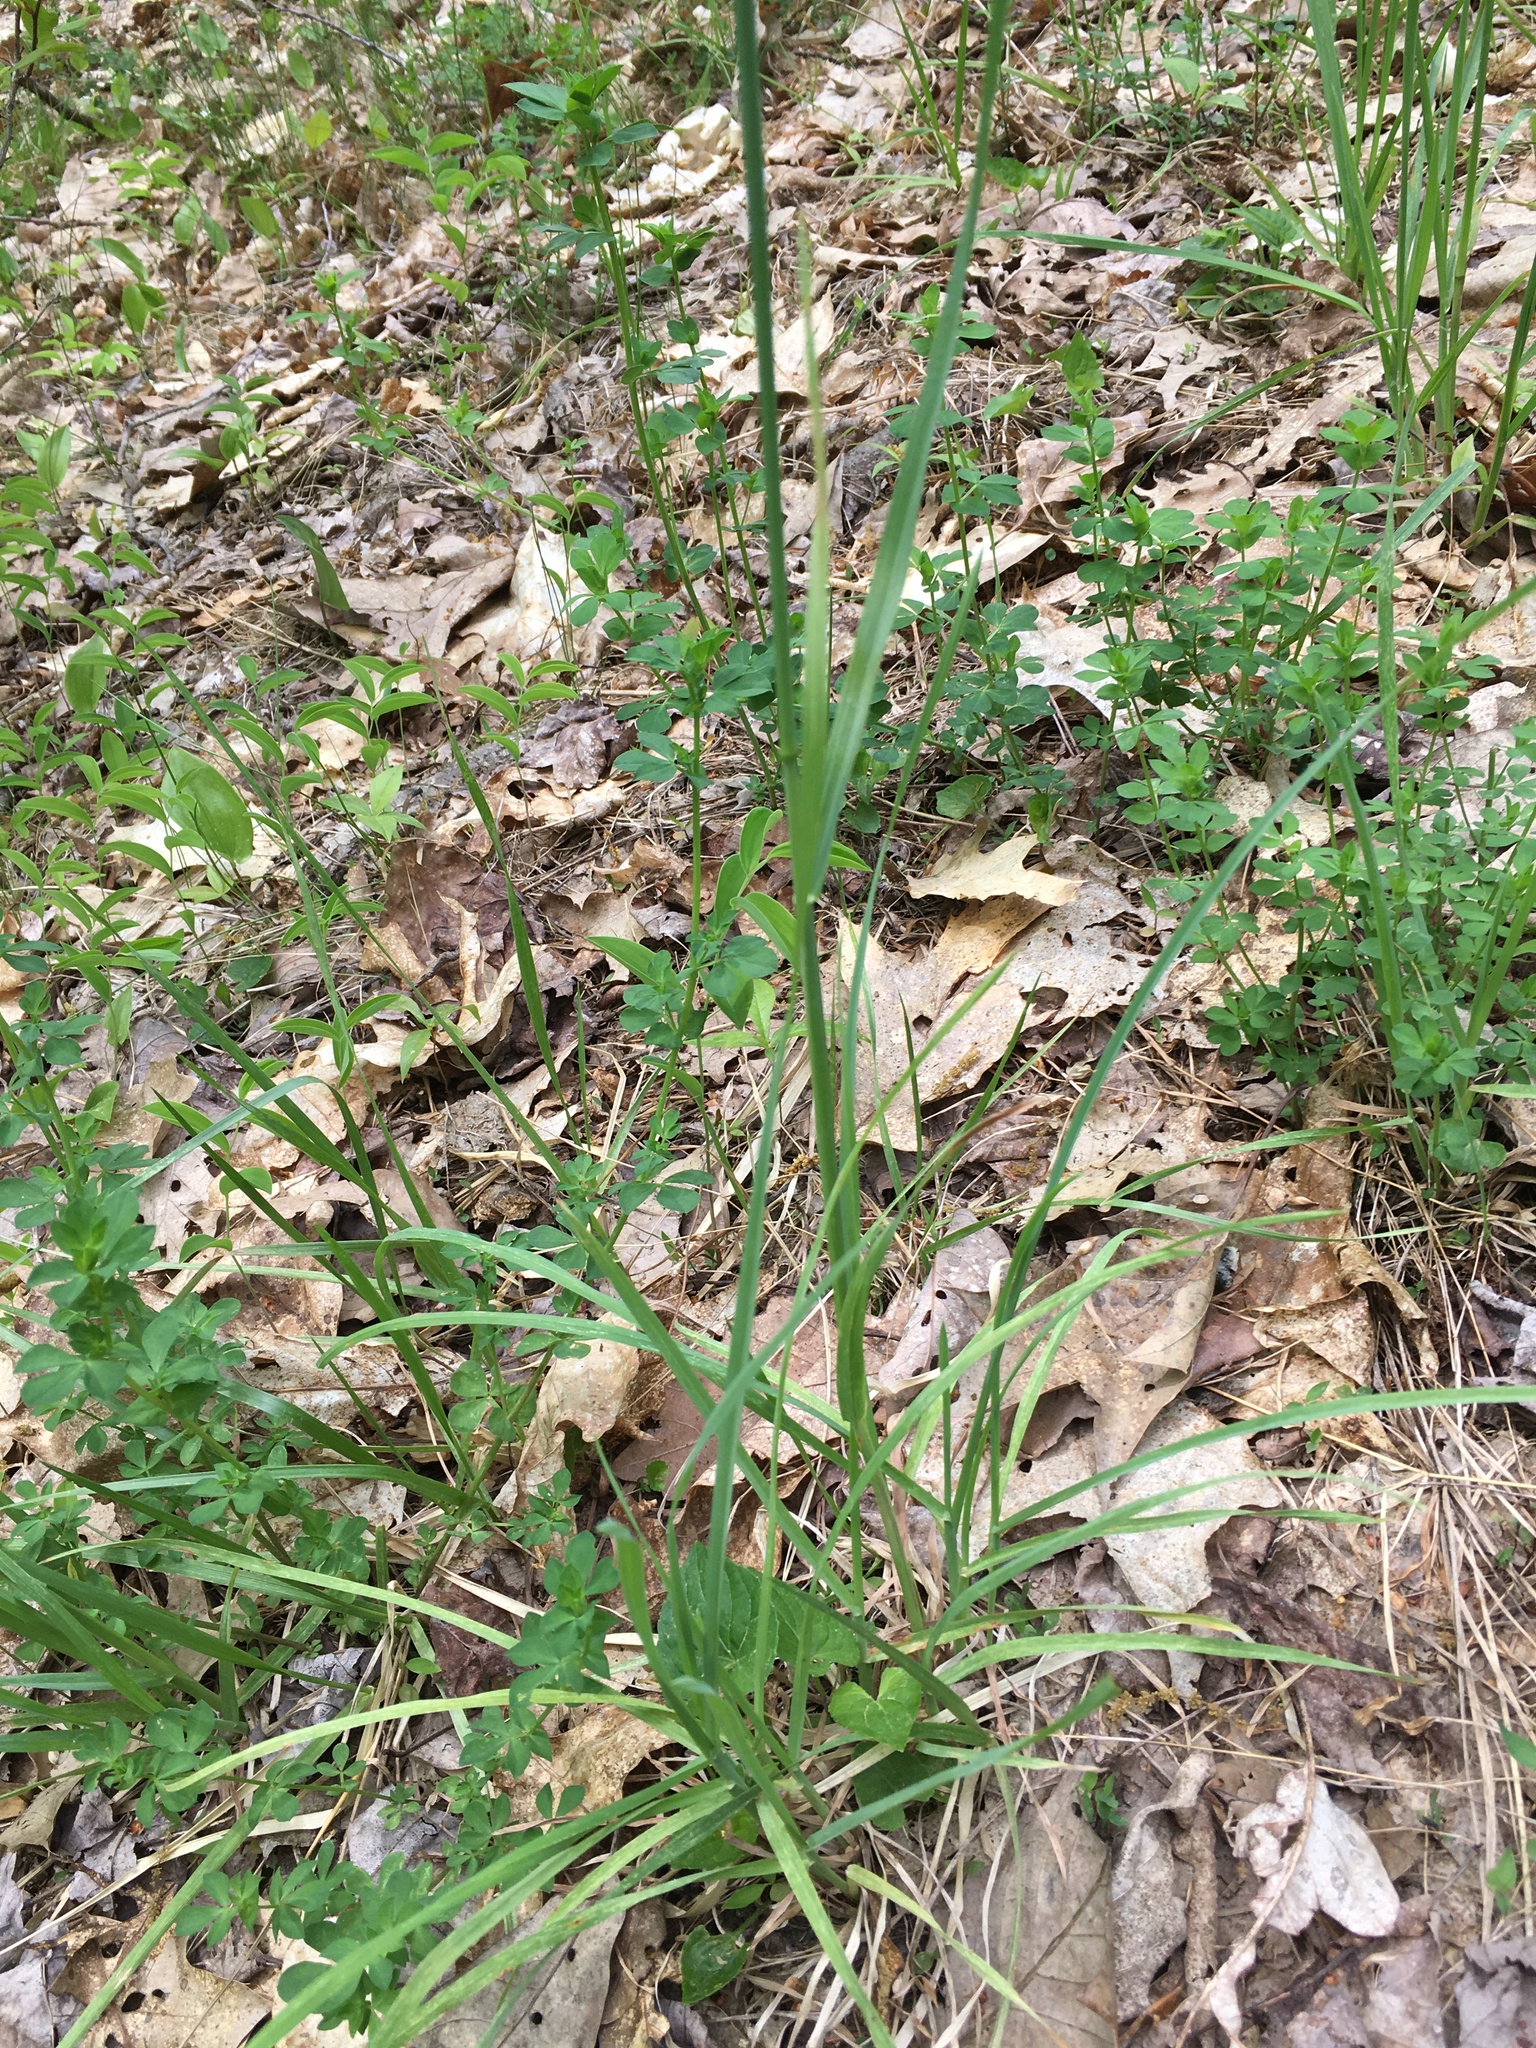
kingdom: Plantae
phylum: Tracheophyta
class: Liliopsida
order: Poales
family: Poaceae
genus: Dactylis
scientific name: Dactylis glomerata
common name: Orchardgrass
